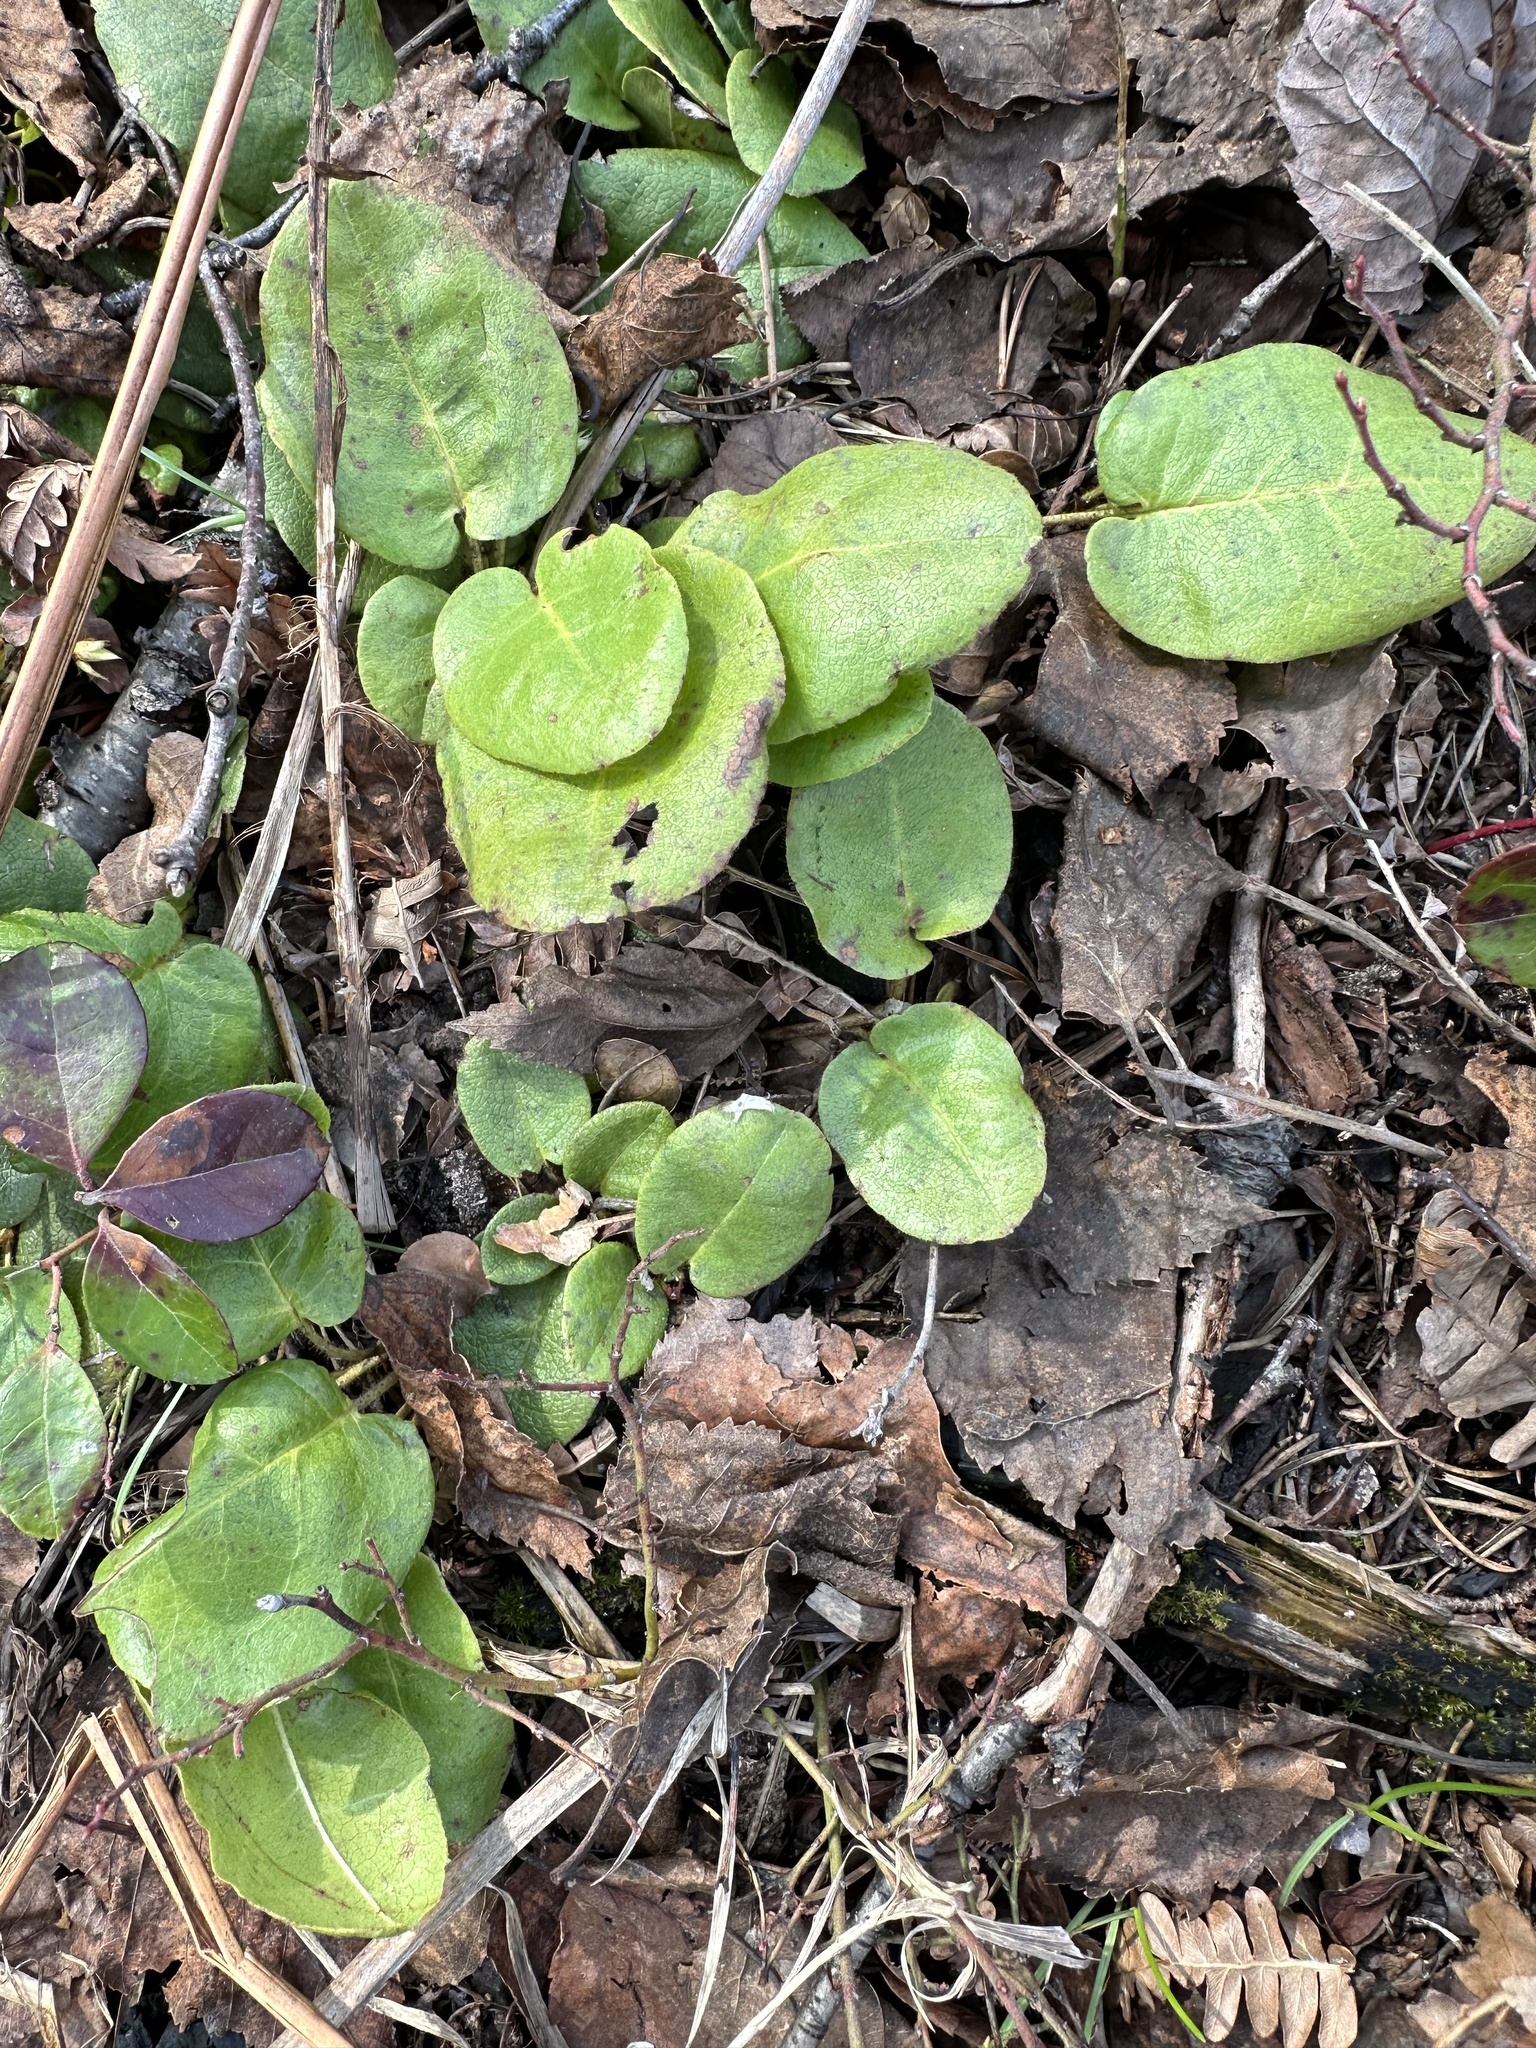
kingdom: Plantae
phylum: Tracheophyta
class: Magnoliopsida
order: Ericales
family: Ericaceae
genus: Epigaea
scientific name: Epigaea repens
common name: Gravelroot
